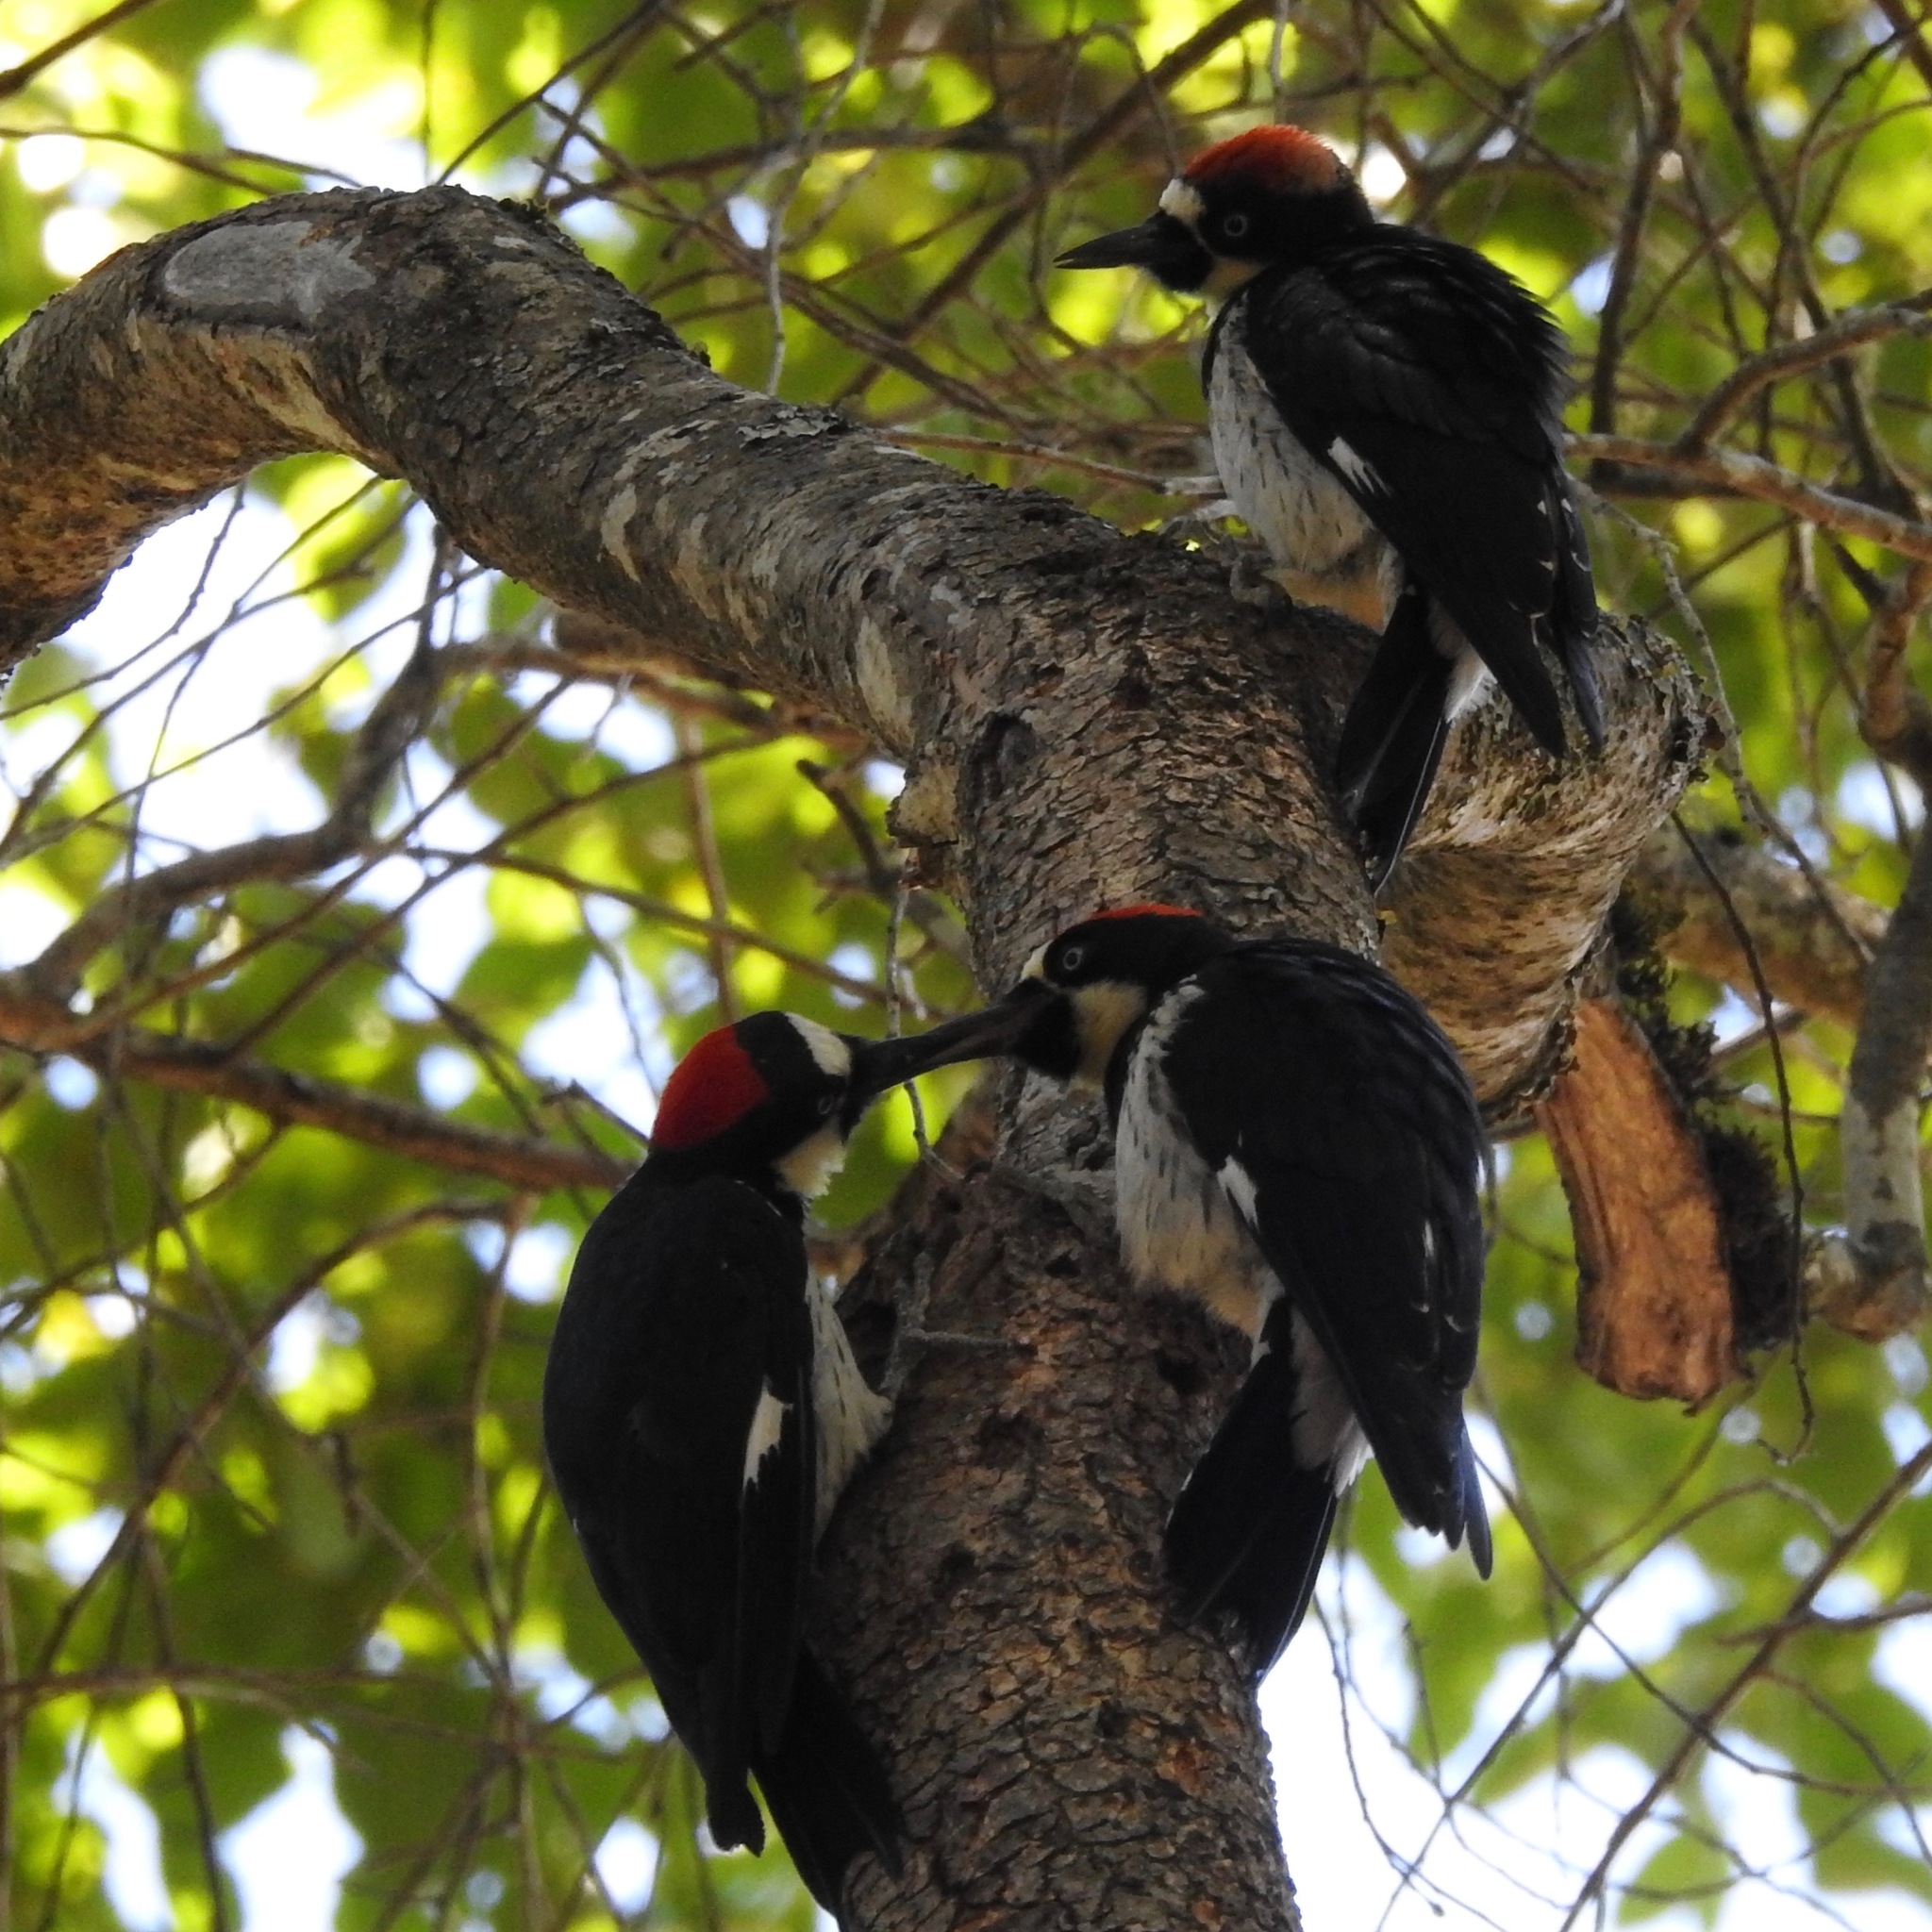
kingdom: Animalia
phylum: Chordata
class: Aves
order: Piciformes
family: Picidae
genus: Melanerpes
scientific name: Melanerpes formicivorus
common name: Acorn woodpecker
